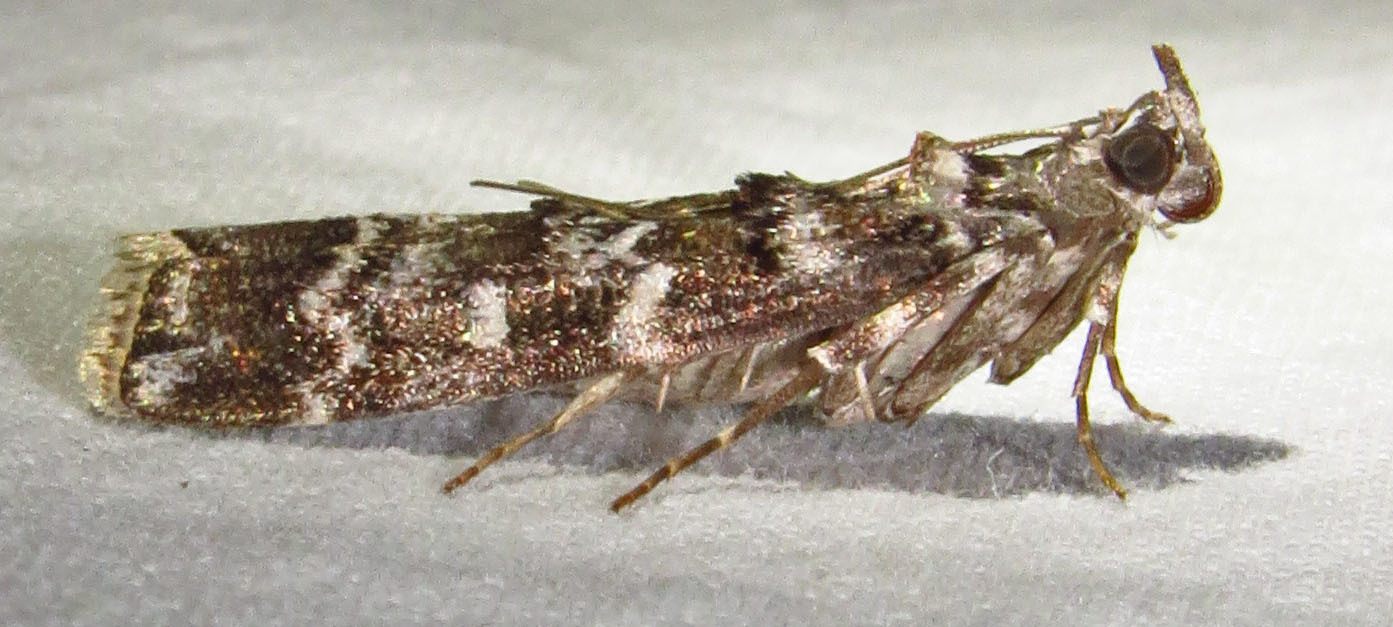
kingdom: Animalia
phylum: Arthropoda
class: Insecta
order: Lepidoptera
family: Pyralidae
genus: Dioryctria
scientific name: Dioryctria amatella
